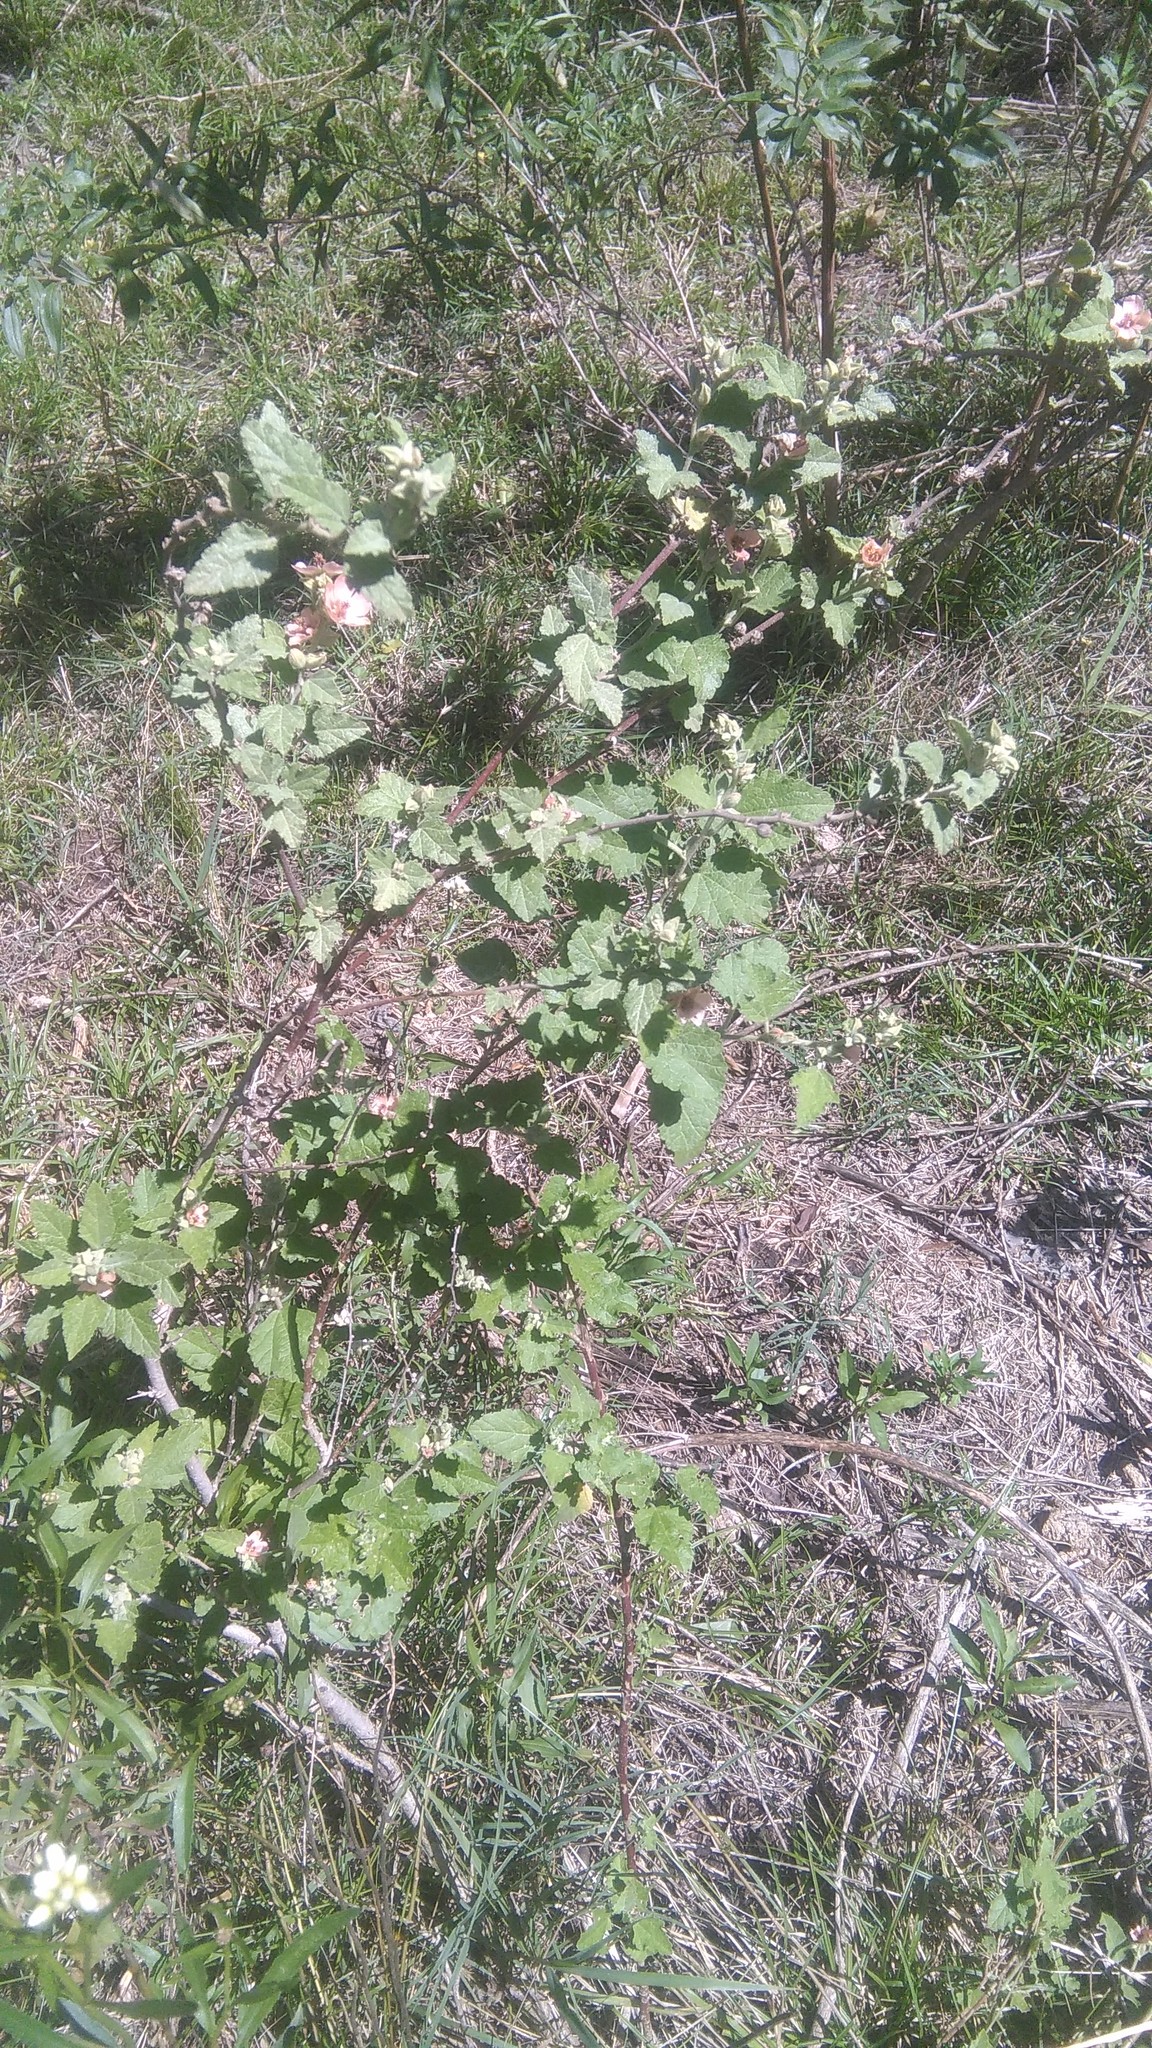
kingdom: Plantae
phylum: Tracheophyta
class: Magnoliopsida
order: Malvales
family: Malvaceae
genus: Sphaeralcea
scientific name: Sphaeralcea bonariensis
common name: Latin globemallow
